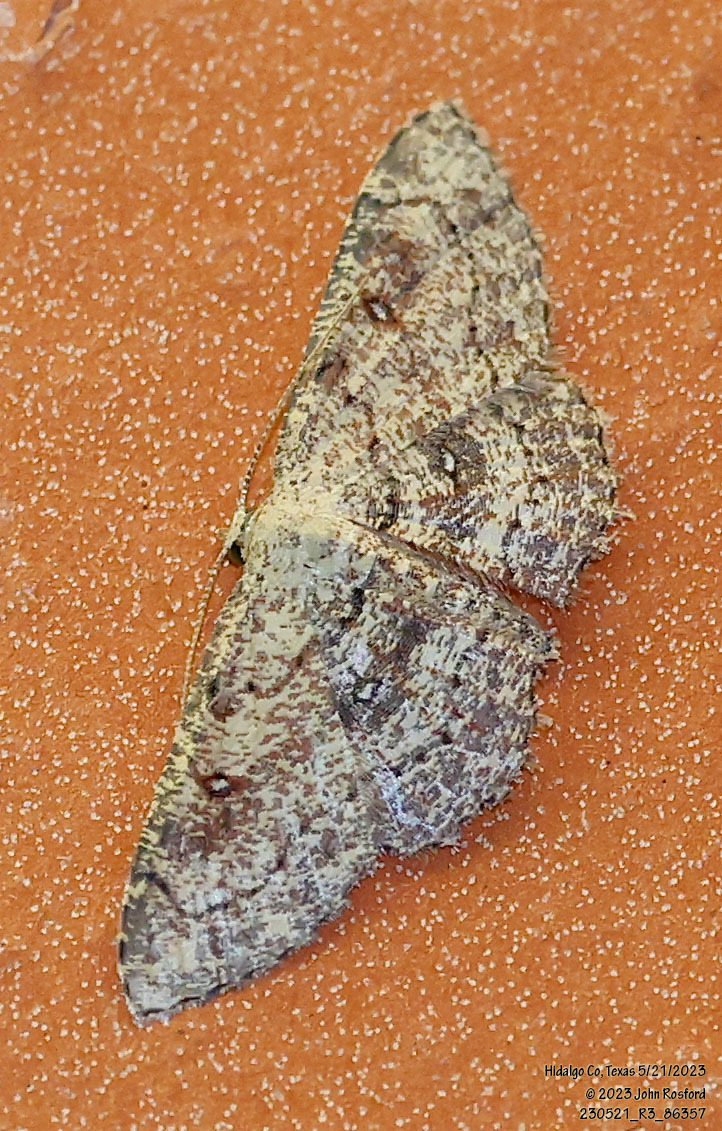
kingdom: Animalia
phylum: Arthropoda
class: Insecta
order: Lepidoptera
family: Geometridae
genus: Cyclophora
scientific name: Cyclophora nanaria
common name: Cankerworm
